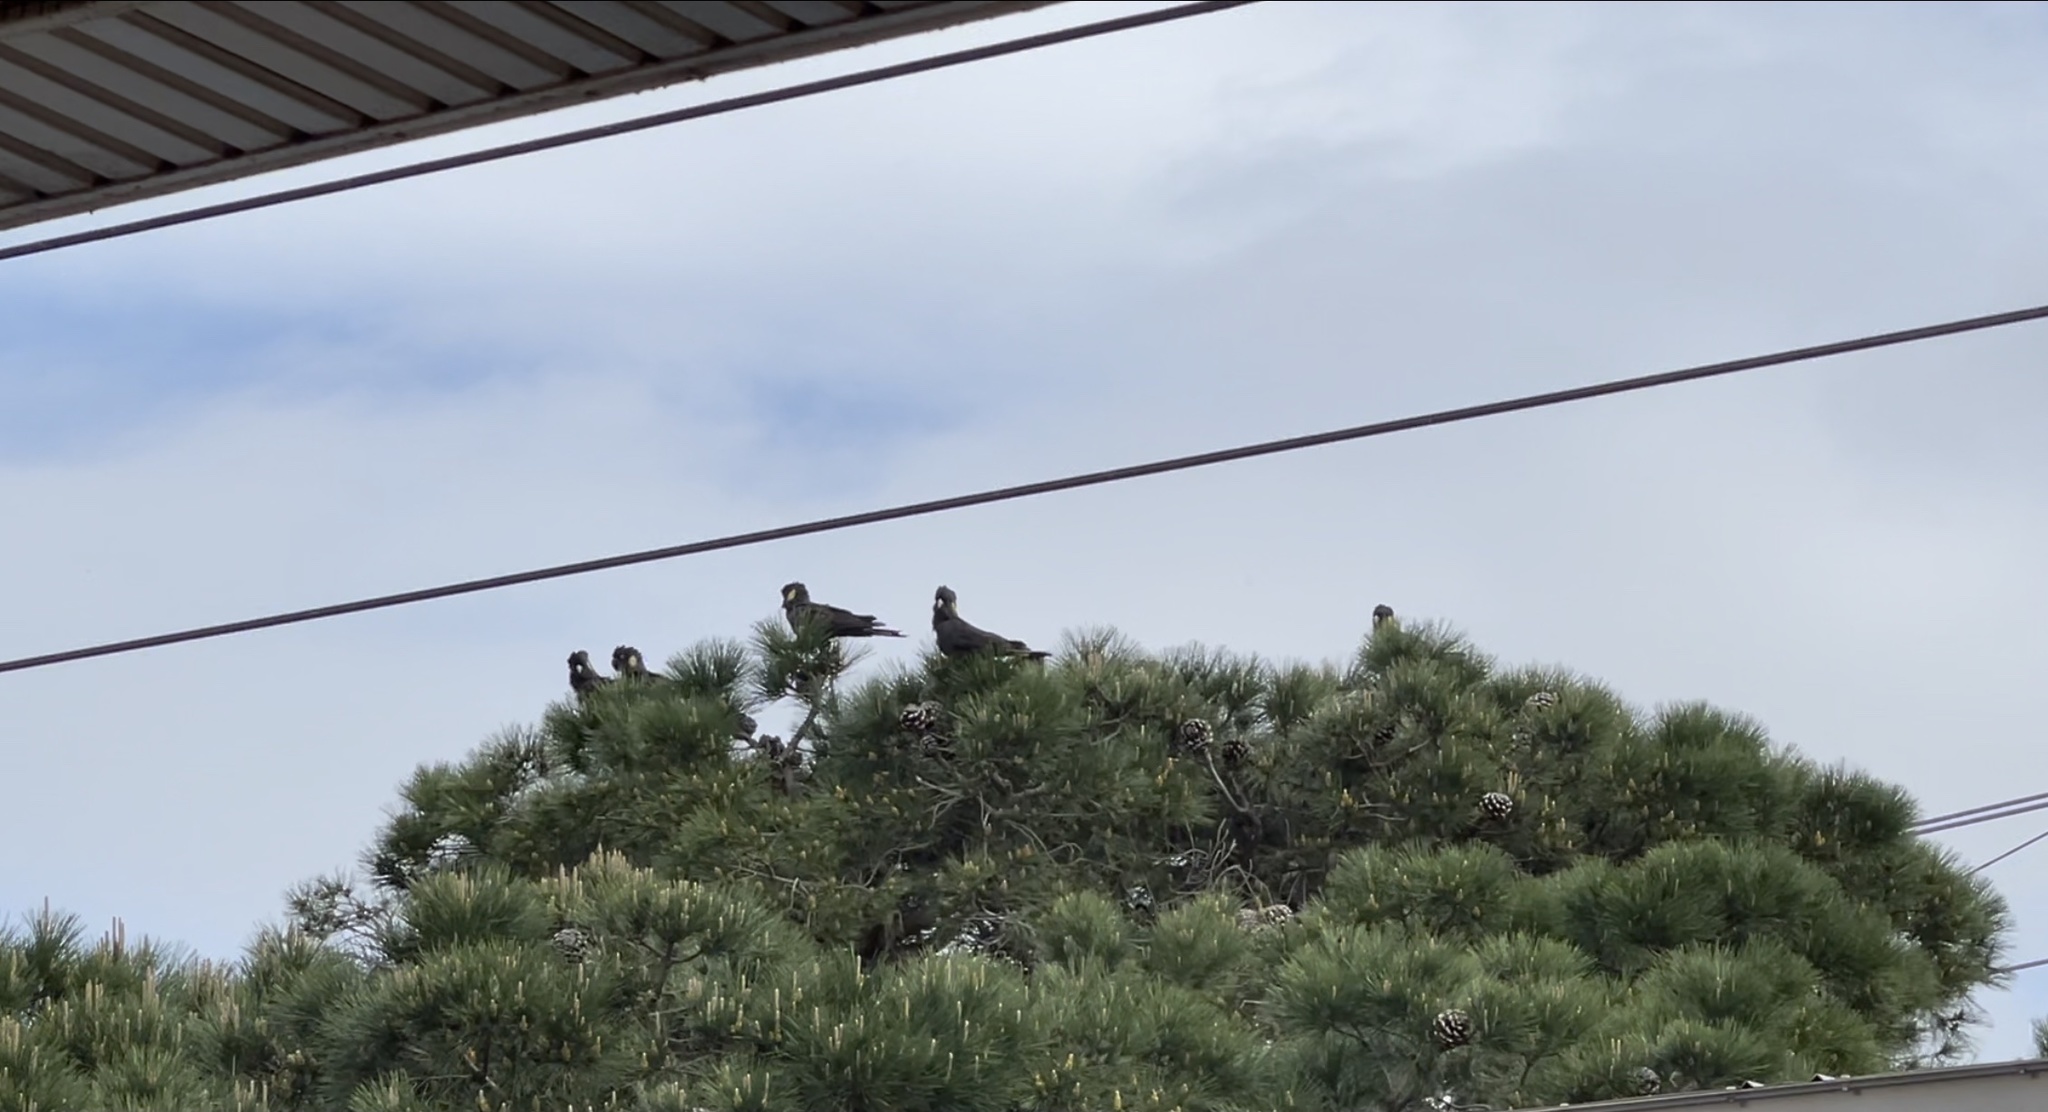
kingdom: Animalia
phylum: Chordata
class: Aves
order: Psittaciformes
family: Cacatuidae
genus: Zanda
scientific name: Zanda funerea
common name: Yellow-tailed black-cockatoo
